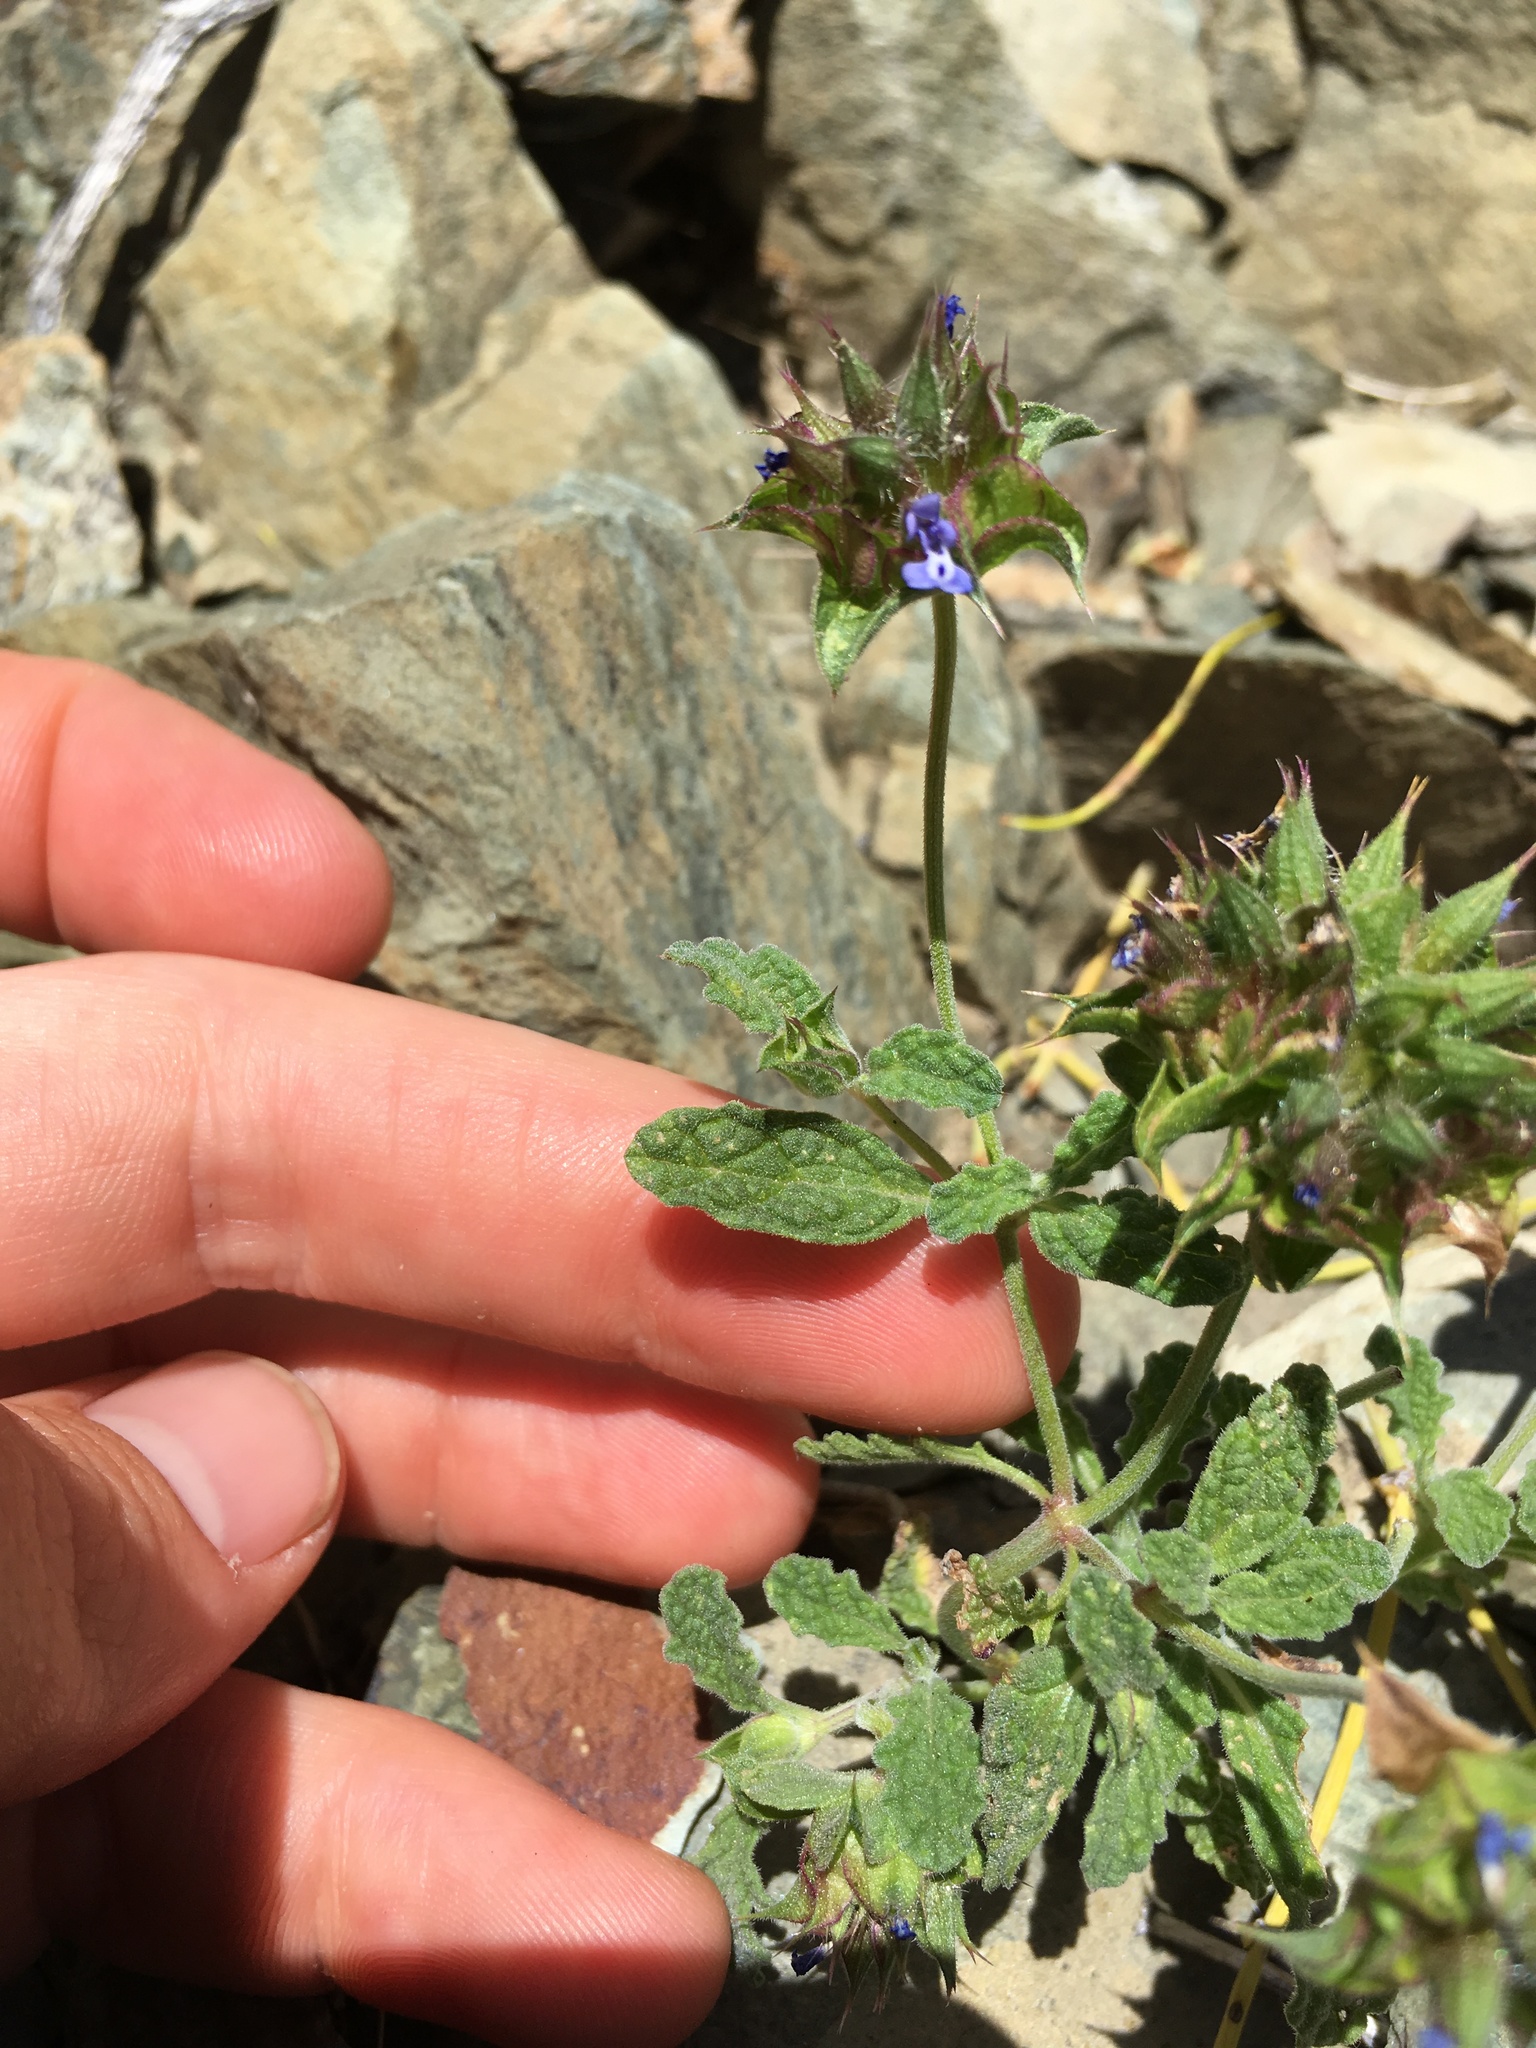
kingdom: Plantae
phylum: Tracheophyta
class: Magnoliopsida
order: Lamiales
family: Lamiaceae
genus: Salvia
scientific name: Salvia columbariae
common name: Chia
